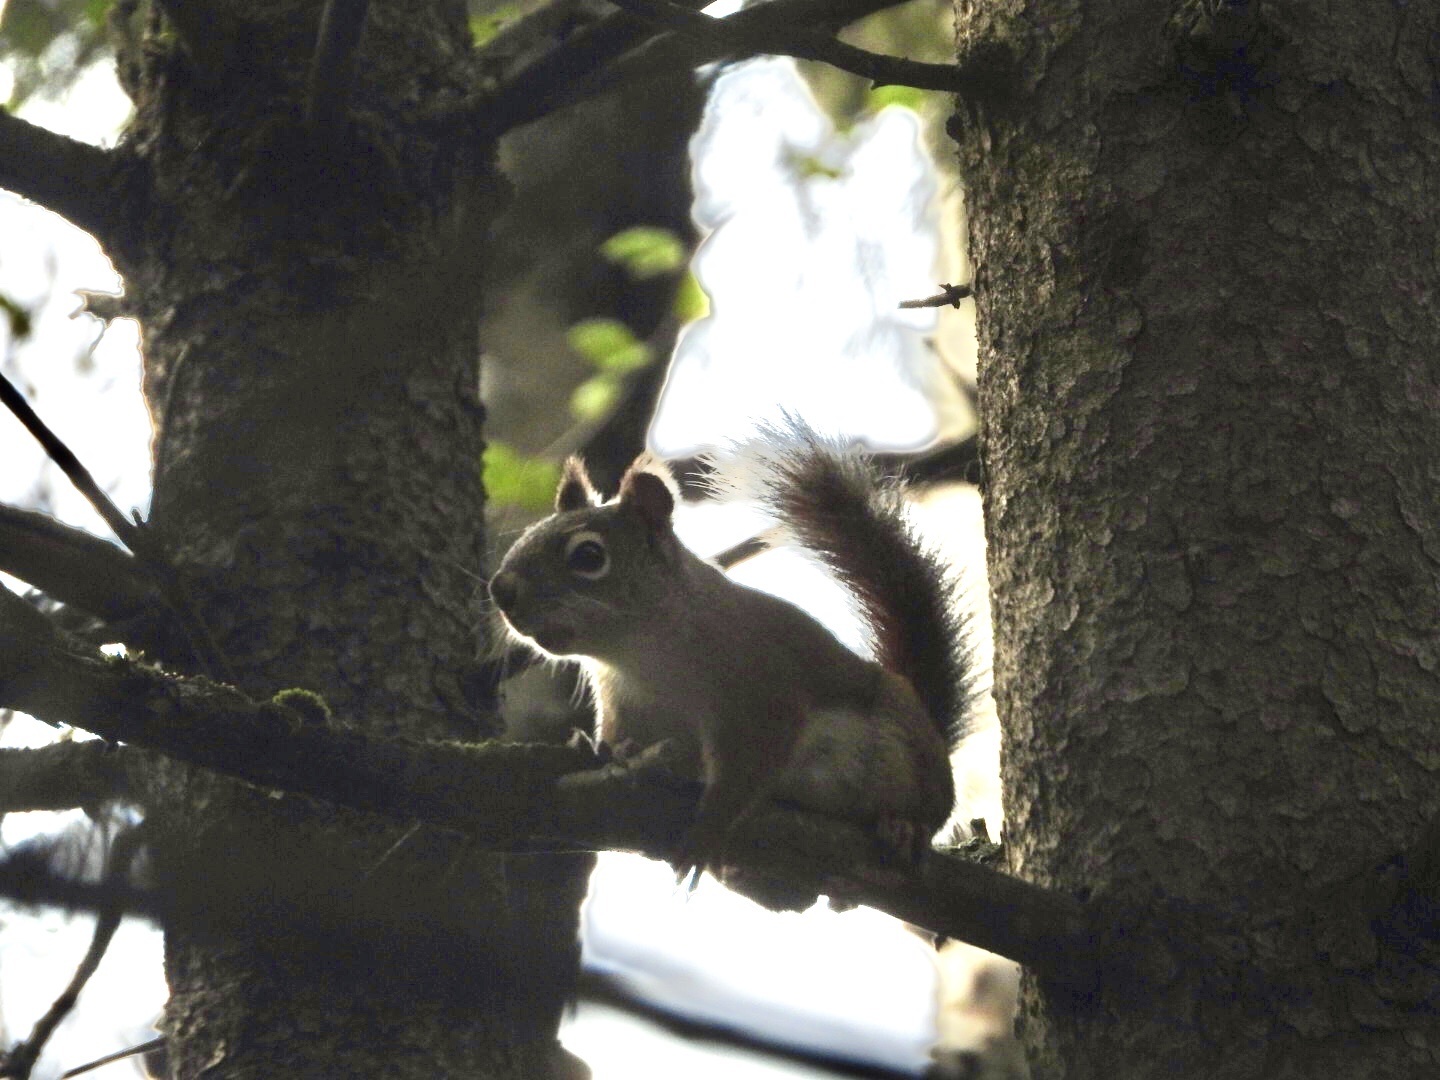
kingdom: Animalia
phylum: Chordata
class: Mammalia
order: Rodentia
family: Sciuridae
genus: Tamiasciurus
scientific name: Tamiasciurus hudsonicus
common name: Red squirrel
